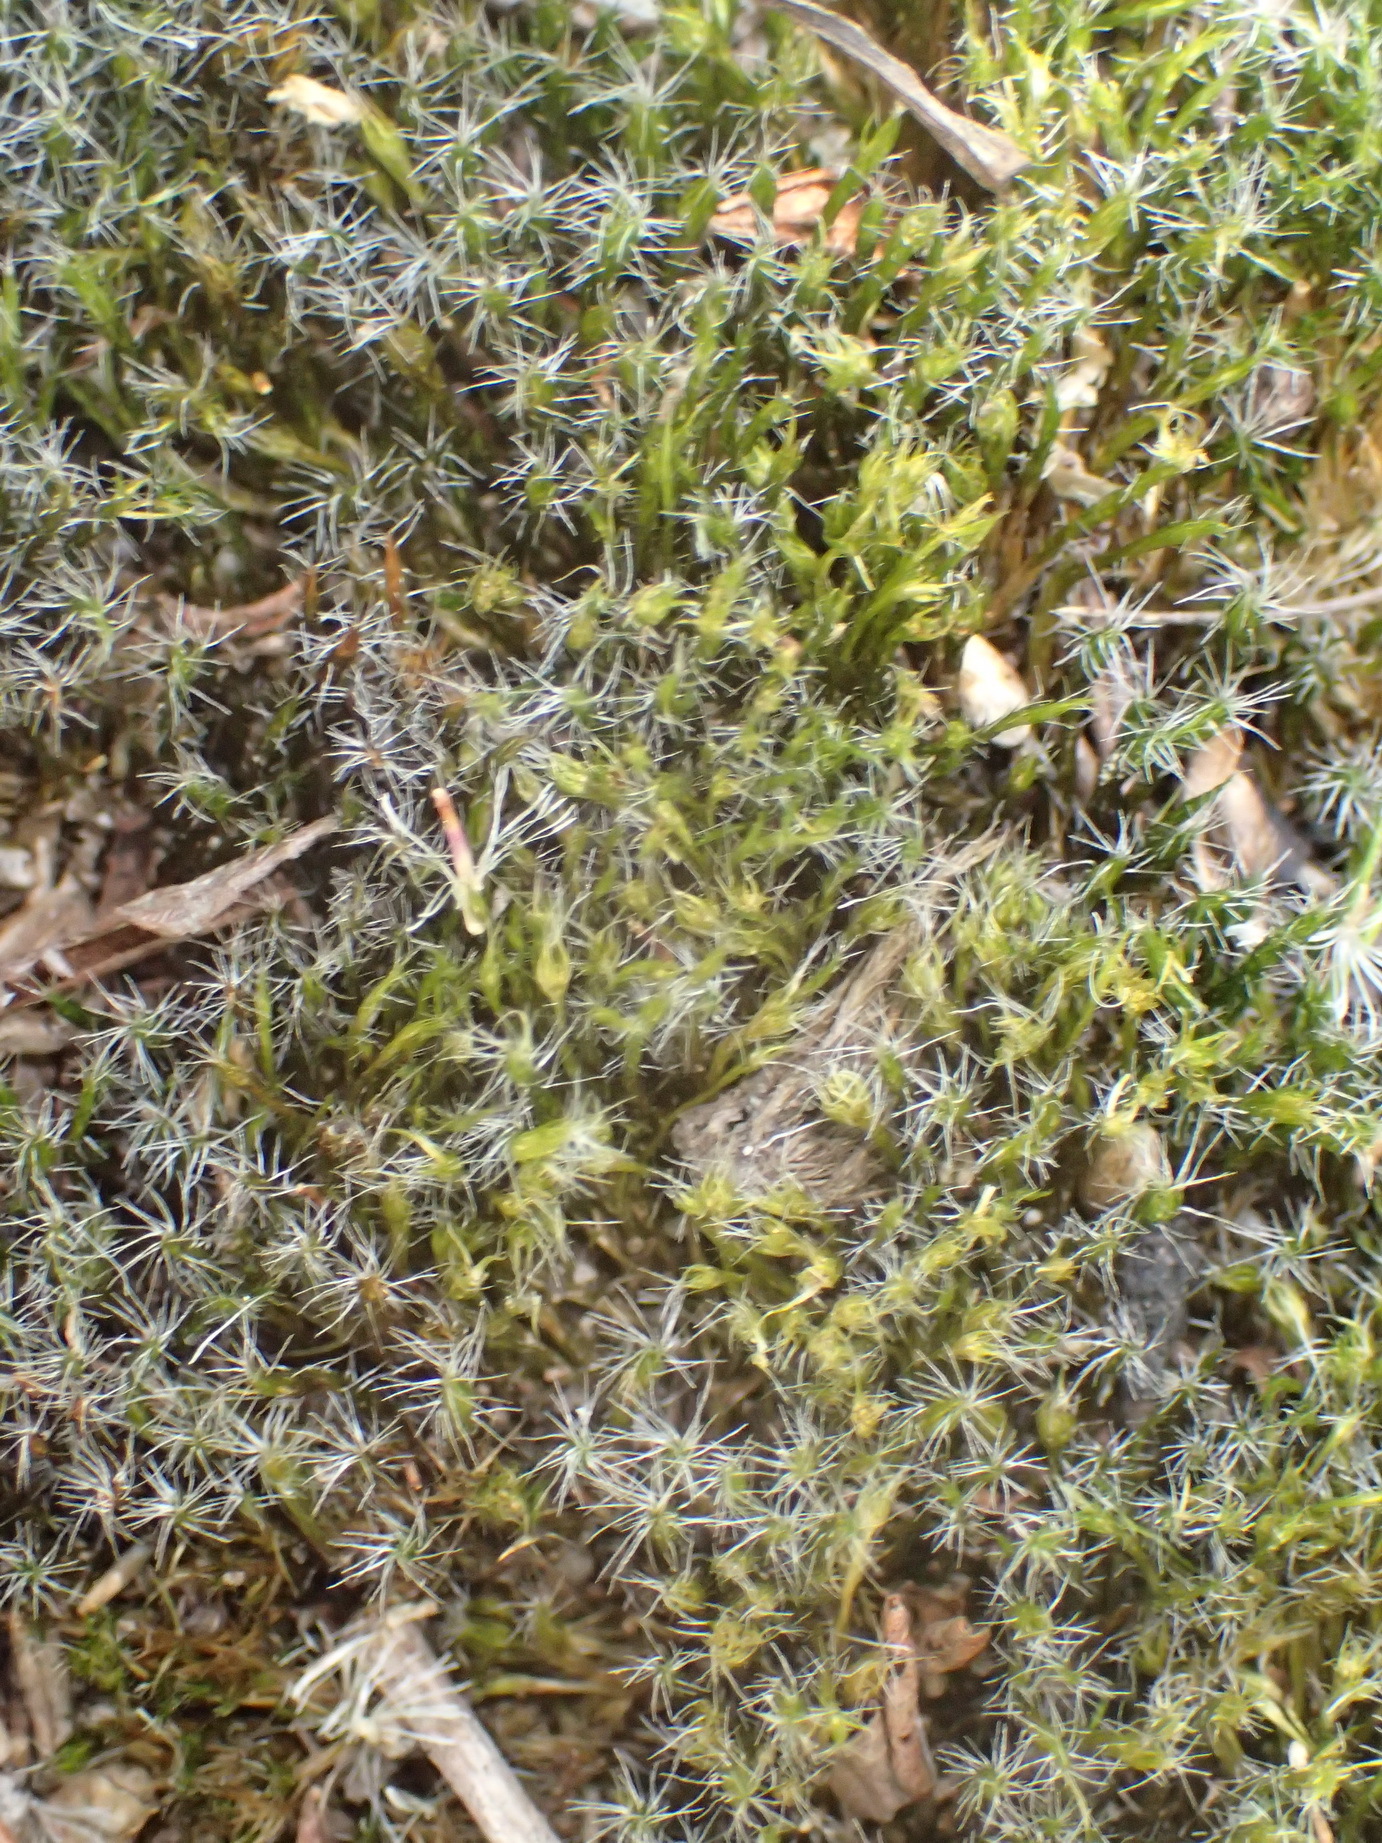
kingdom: Plantae
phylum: Bryophyta
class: Bryopsida
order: Dicranales
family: Leucobryaceae
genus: Campylopus
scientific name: Campylopus introflexus
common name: Heath star moss
